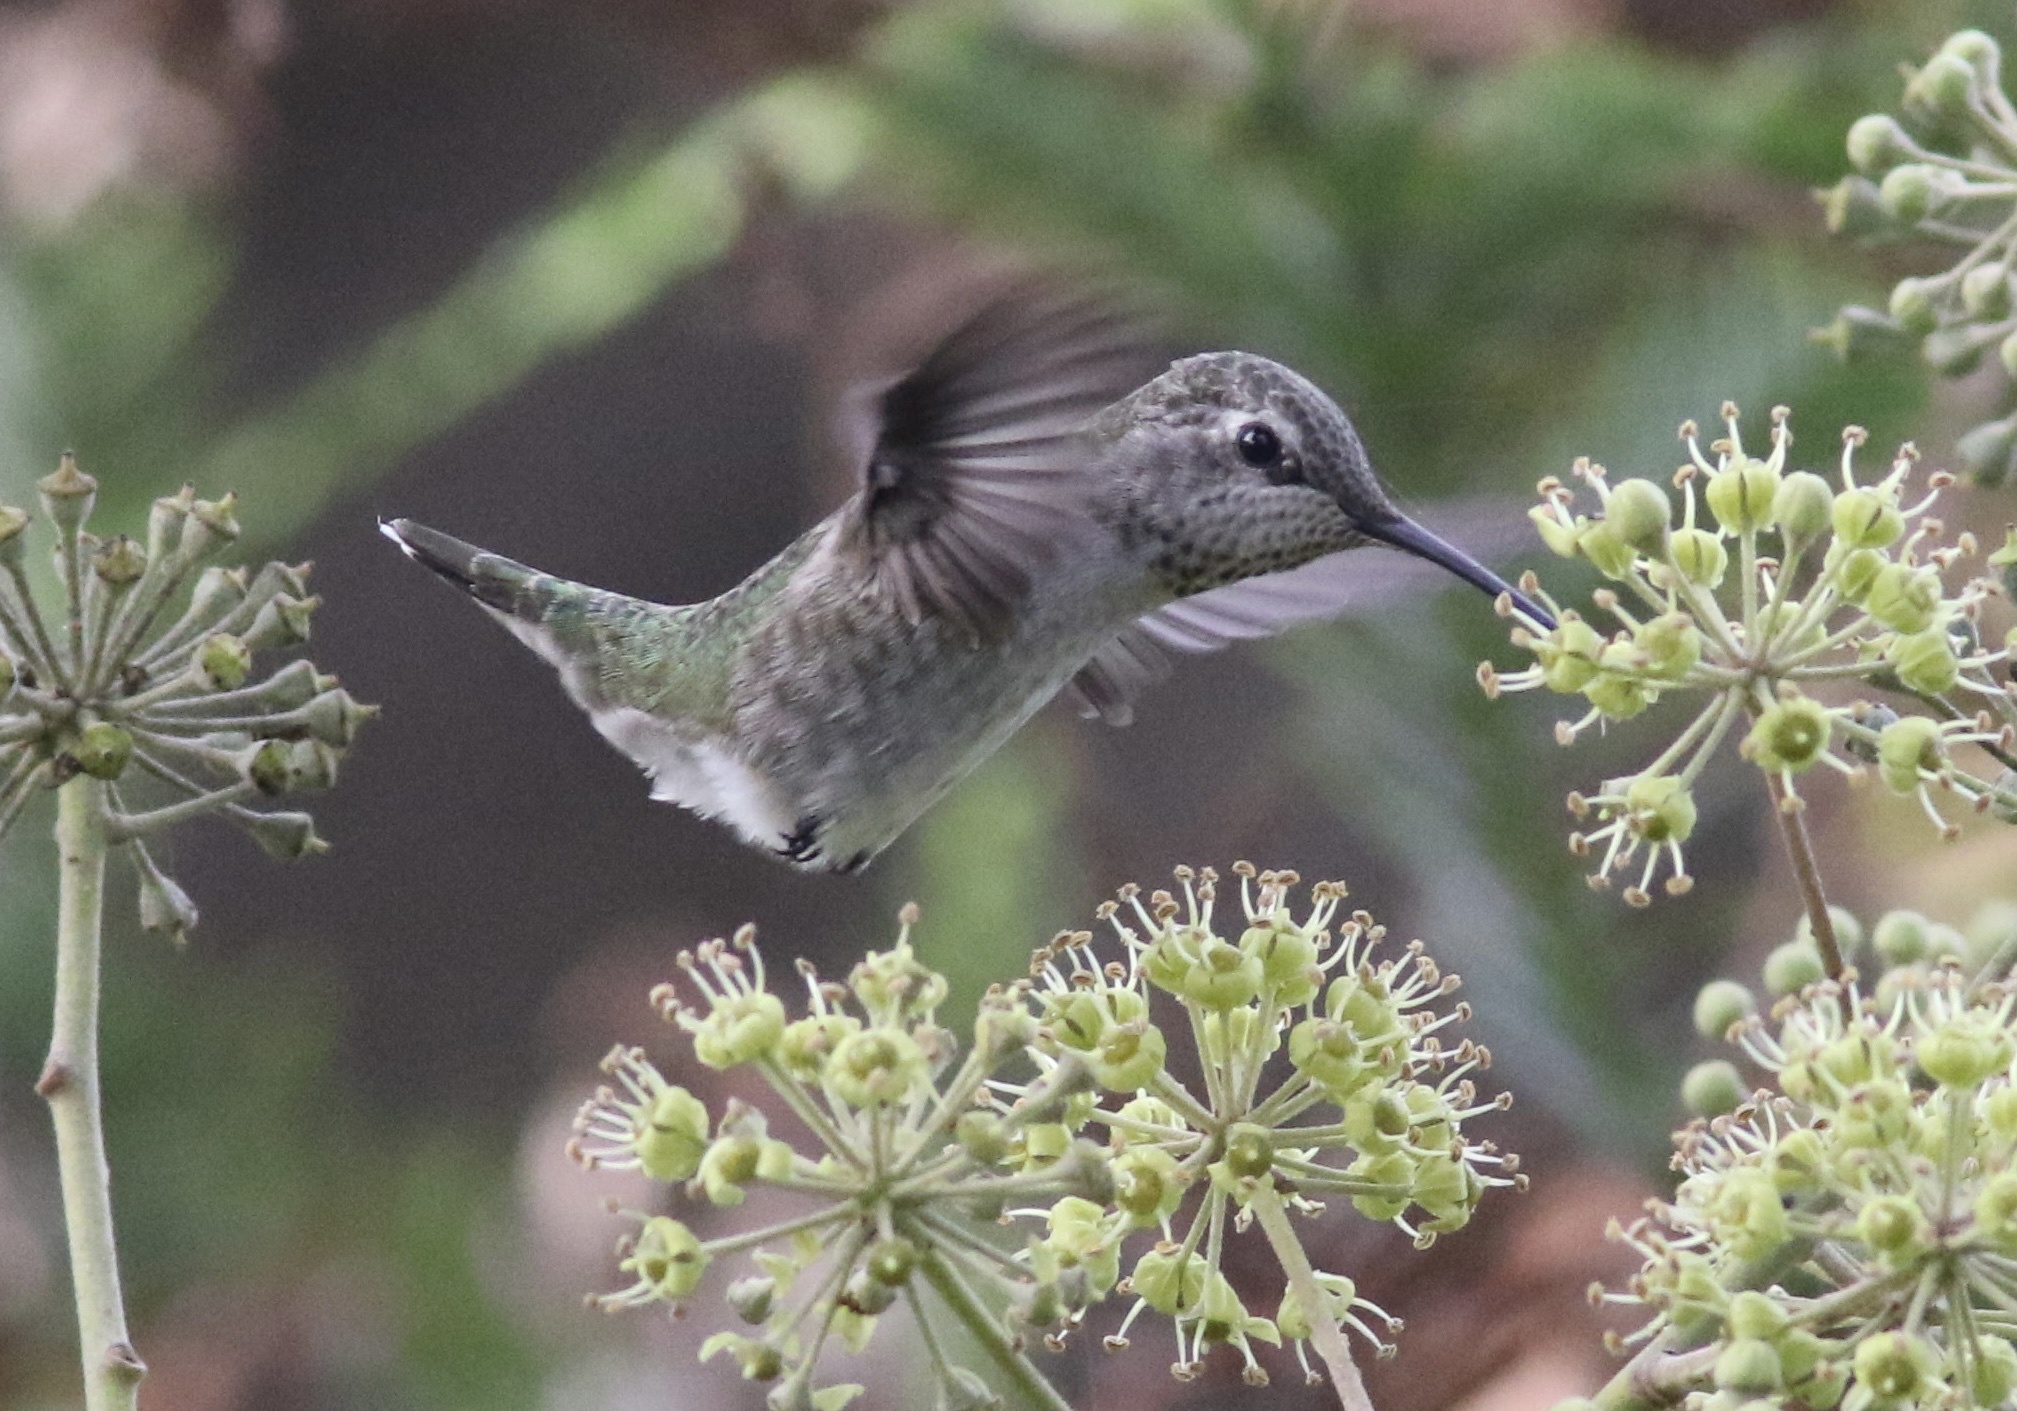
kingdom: Animalia
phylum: Chordata
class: Aves
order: Apodiformes
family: Trochilidae
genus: Calypte
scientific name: Calypte anna
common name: Anna's hummingbird
